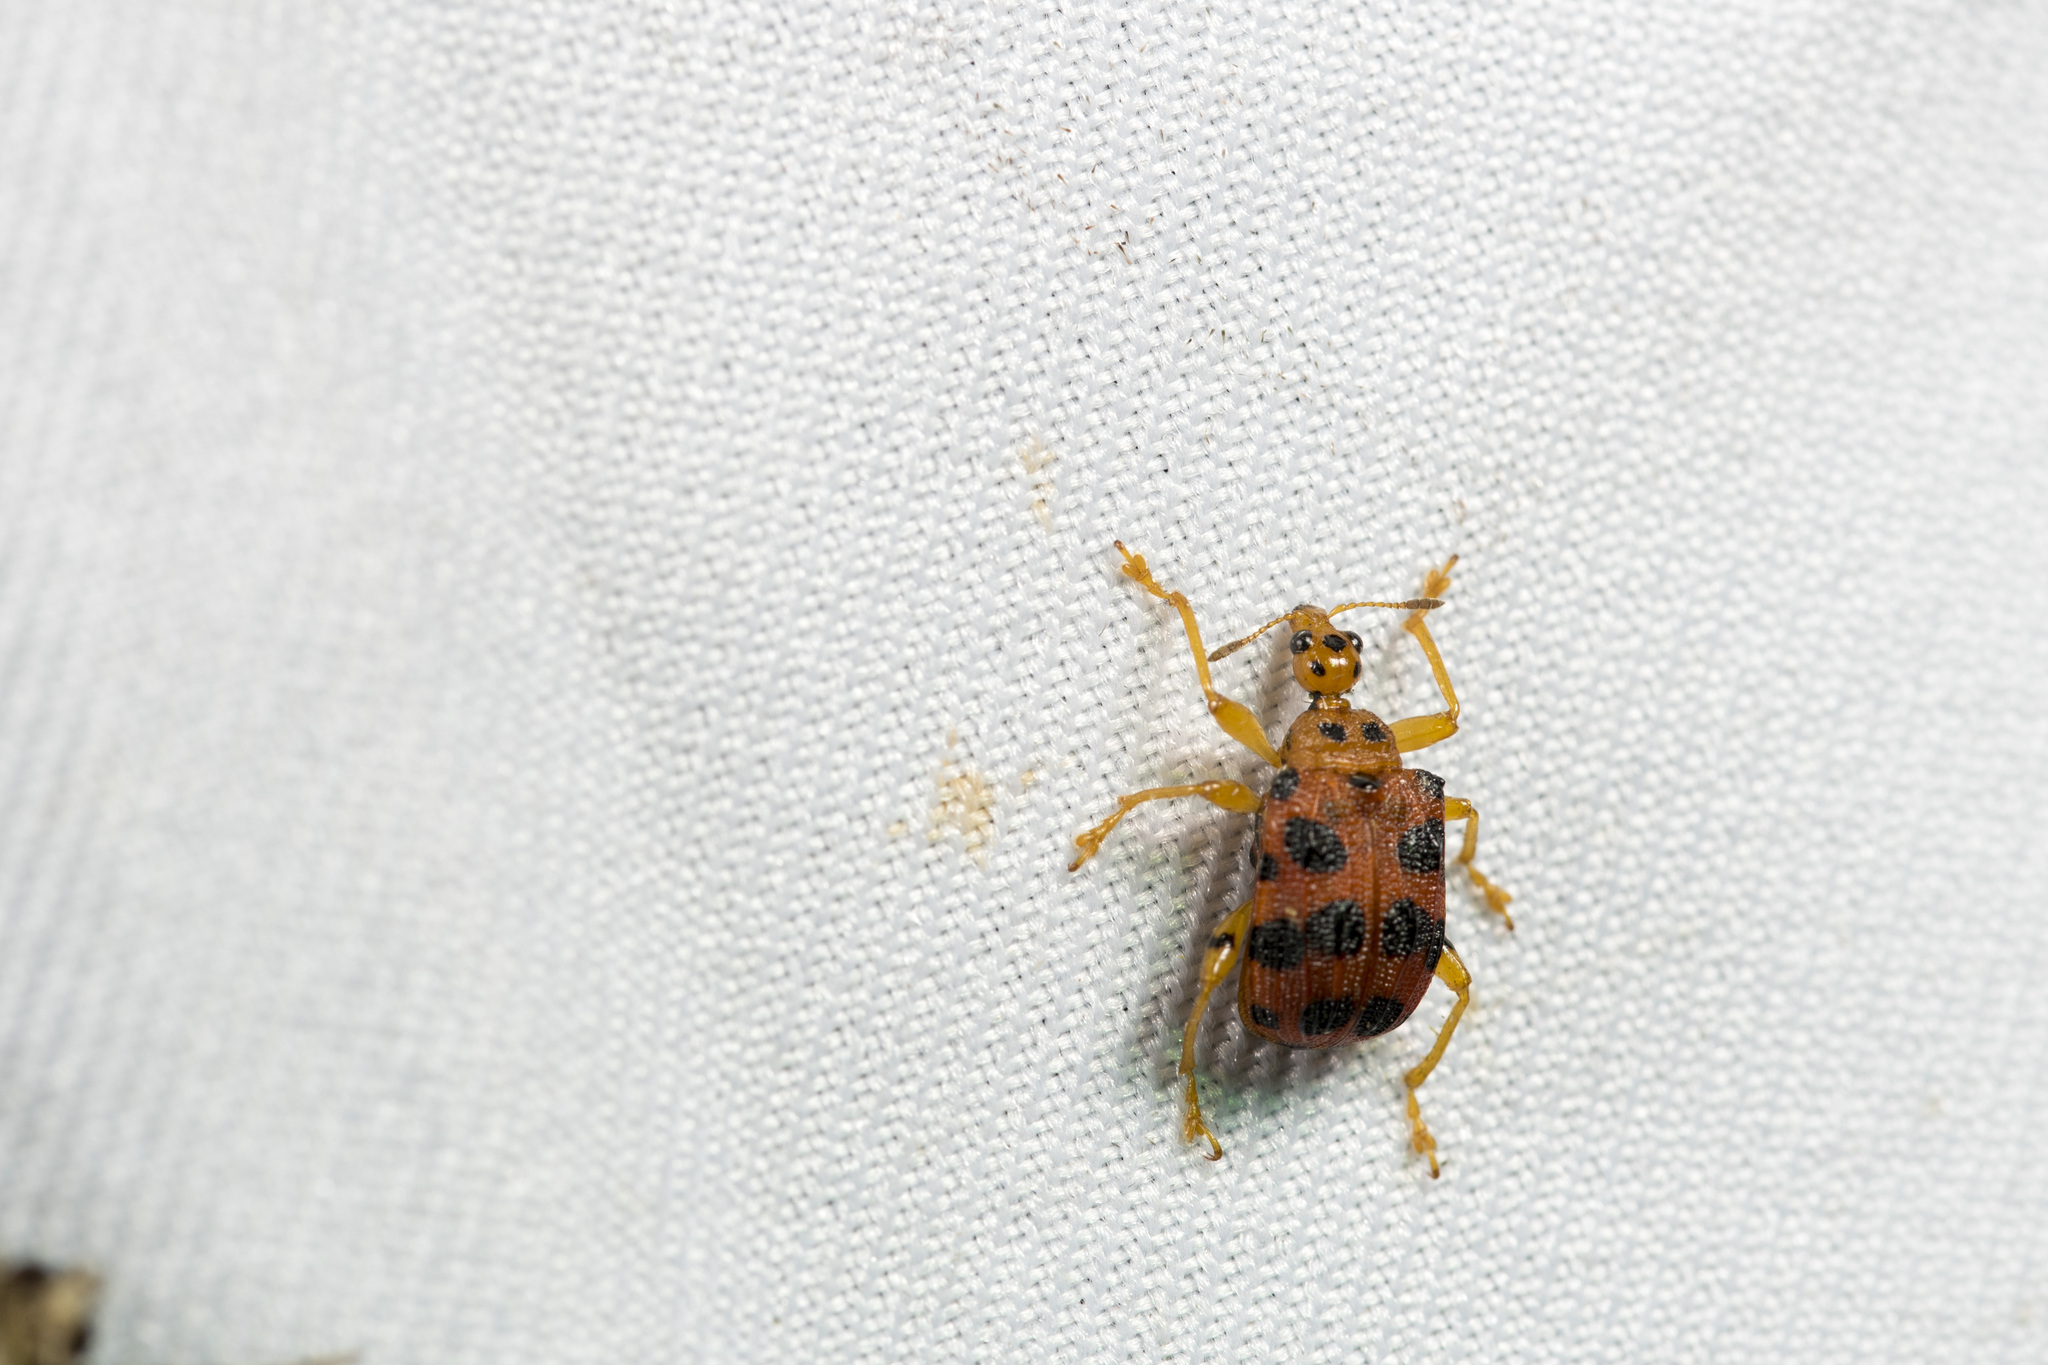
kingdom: Animalia
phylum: Arthropoda
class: Insecta
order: Coleoptera
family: Attelabidae
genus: Hoplapoderus
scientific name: Hoplapoderus pardaloides
